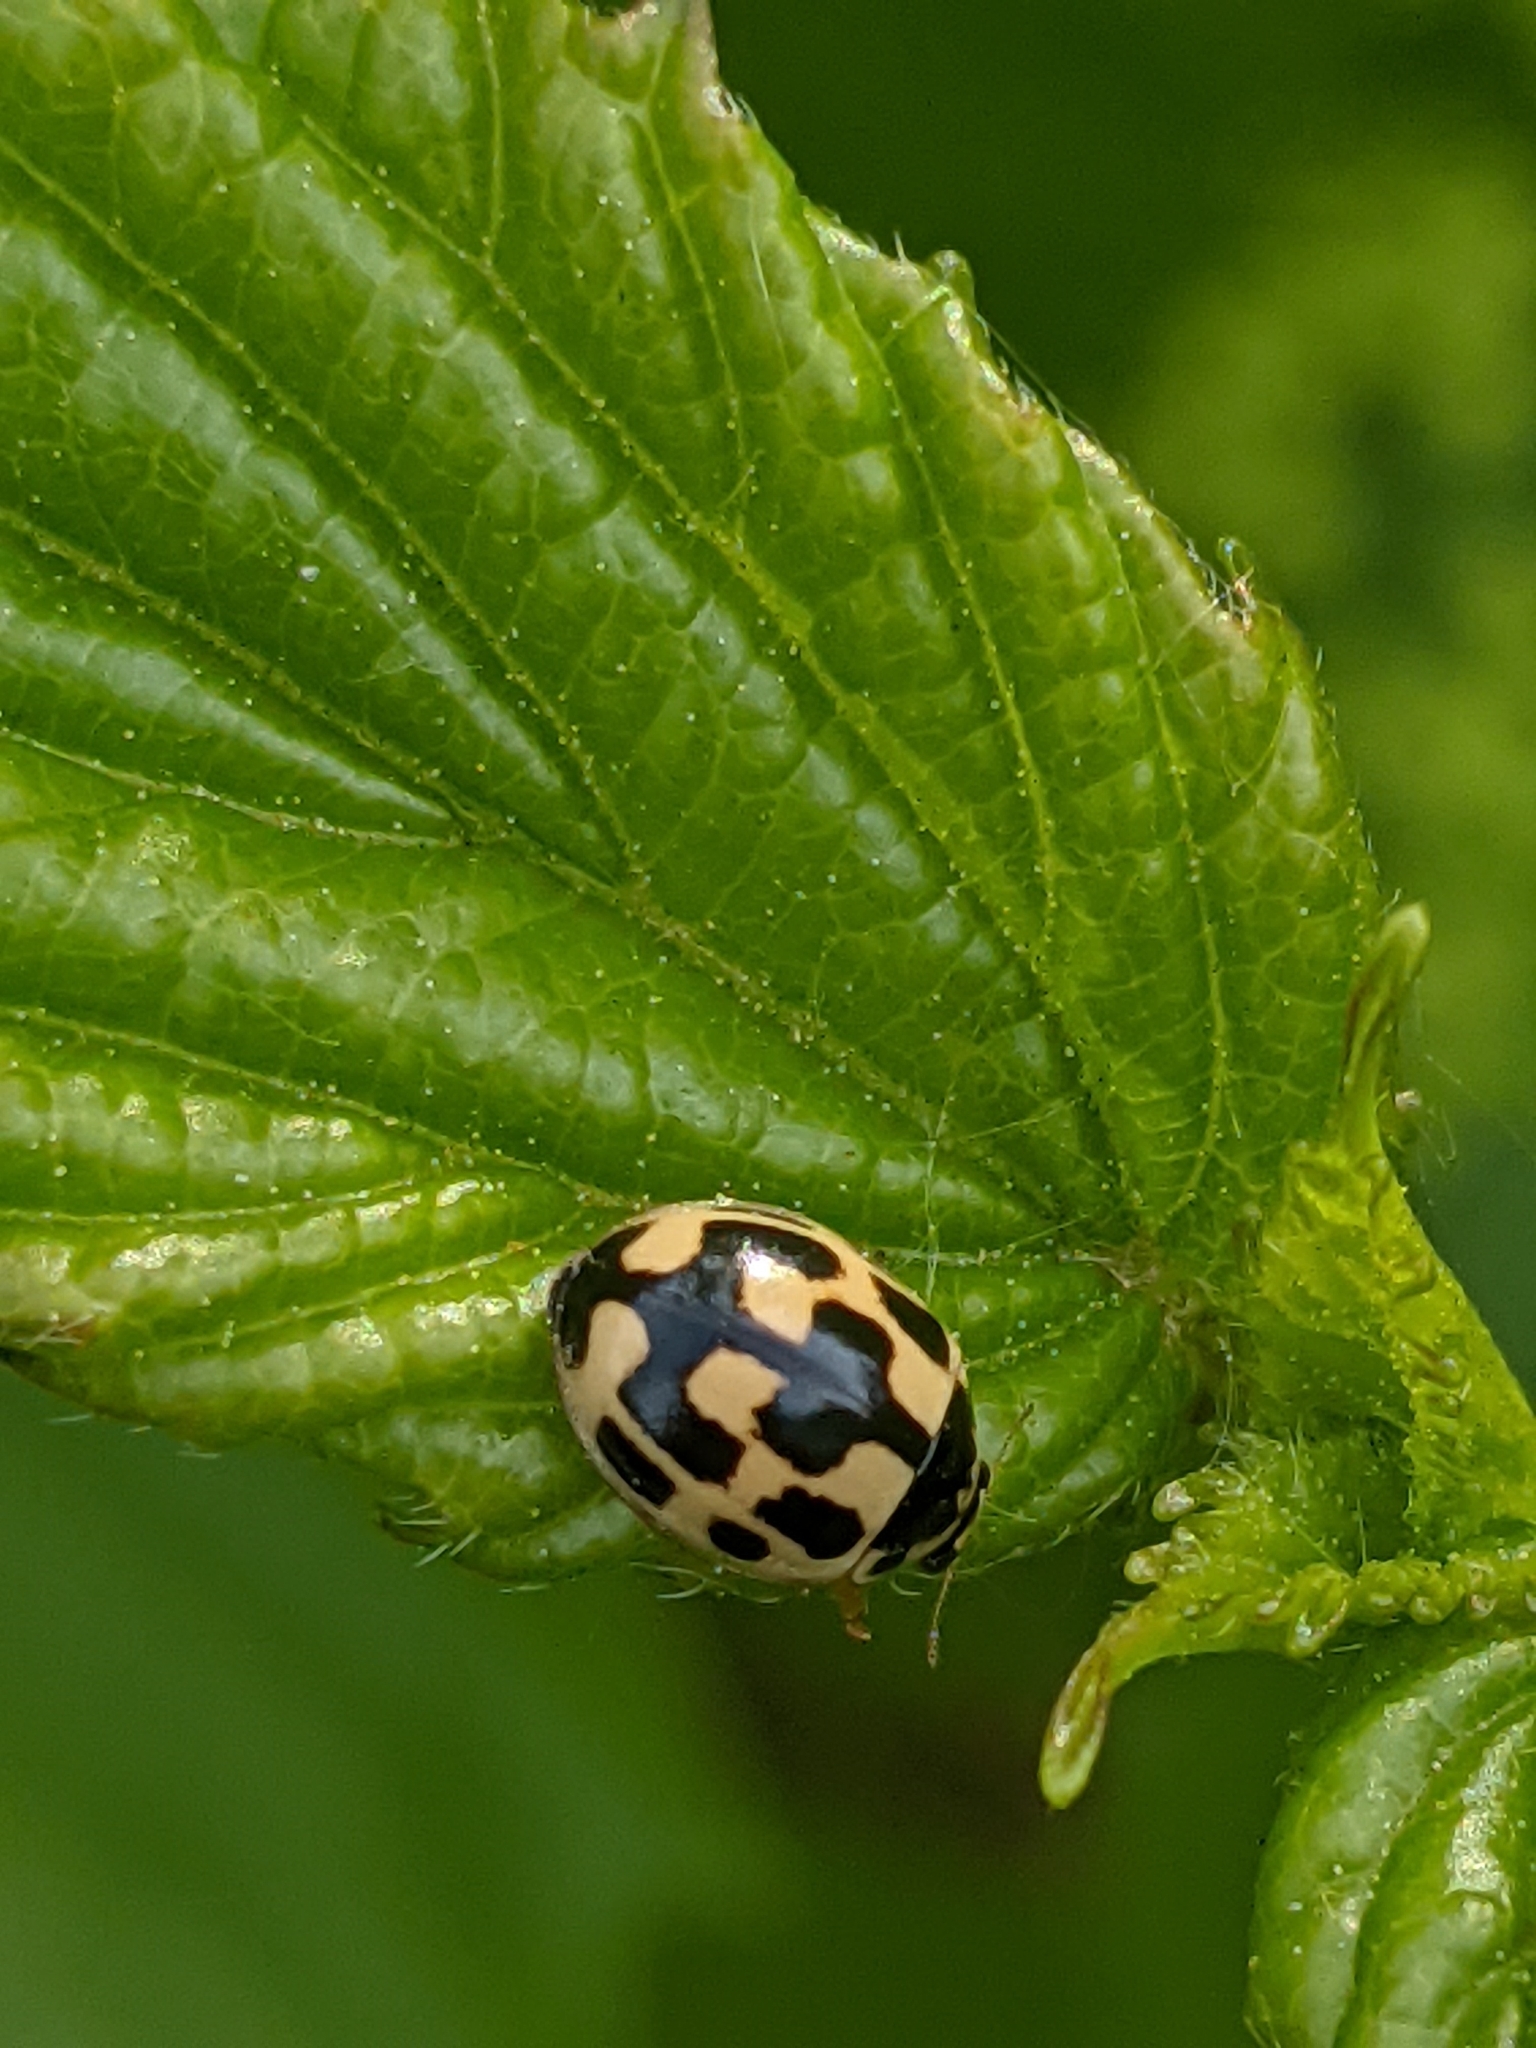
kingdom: Animalia
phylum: Arthropoda
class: Insecta
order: Coleoptera
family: Coccinellidae
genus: Propylaea
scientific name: Propylaea quatuordecimpunctata
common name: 14-spotted ladybird beetle
